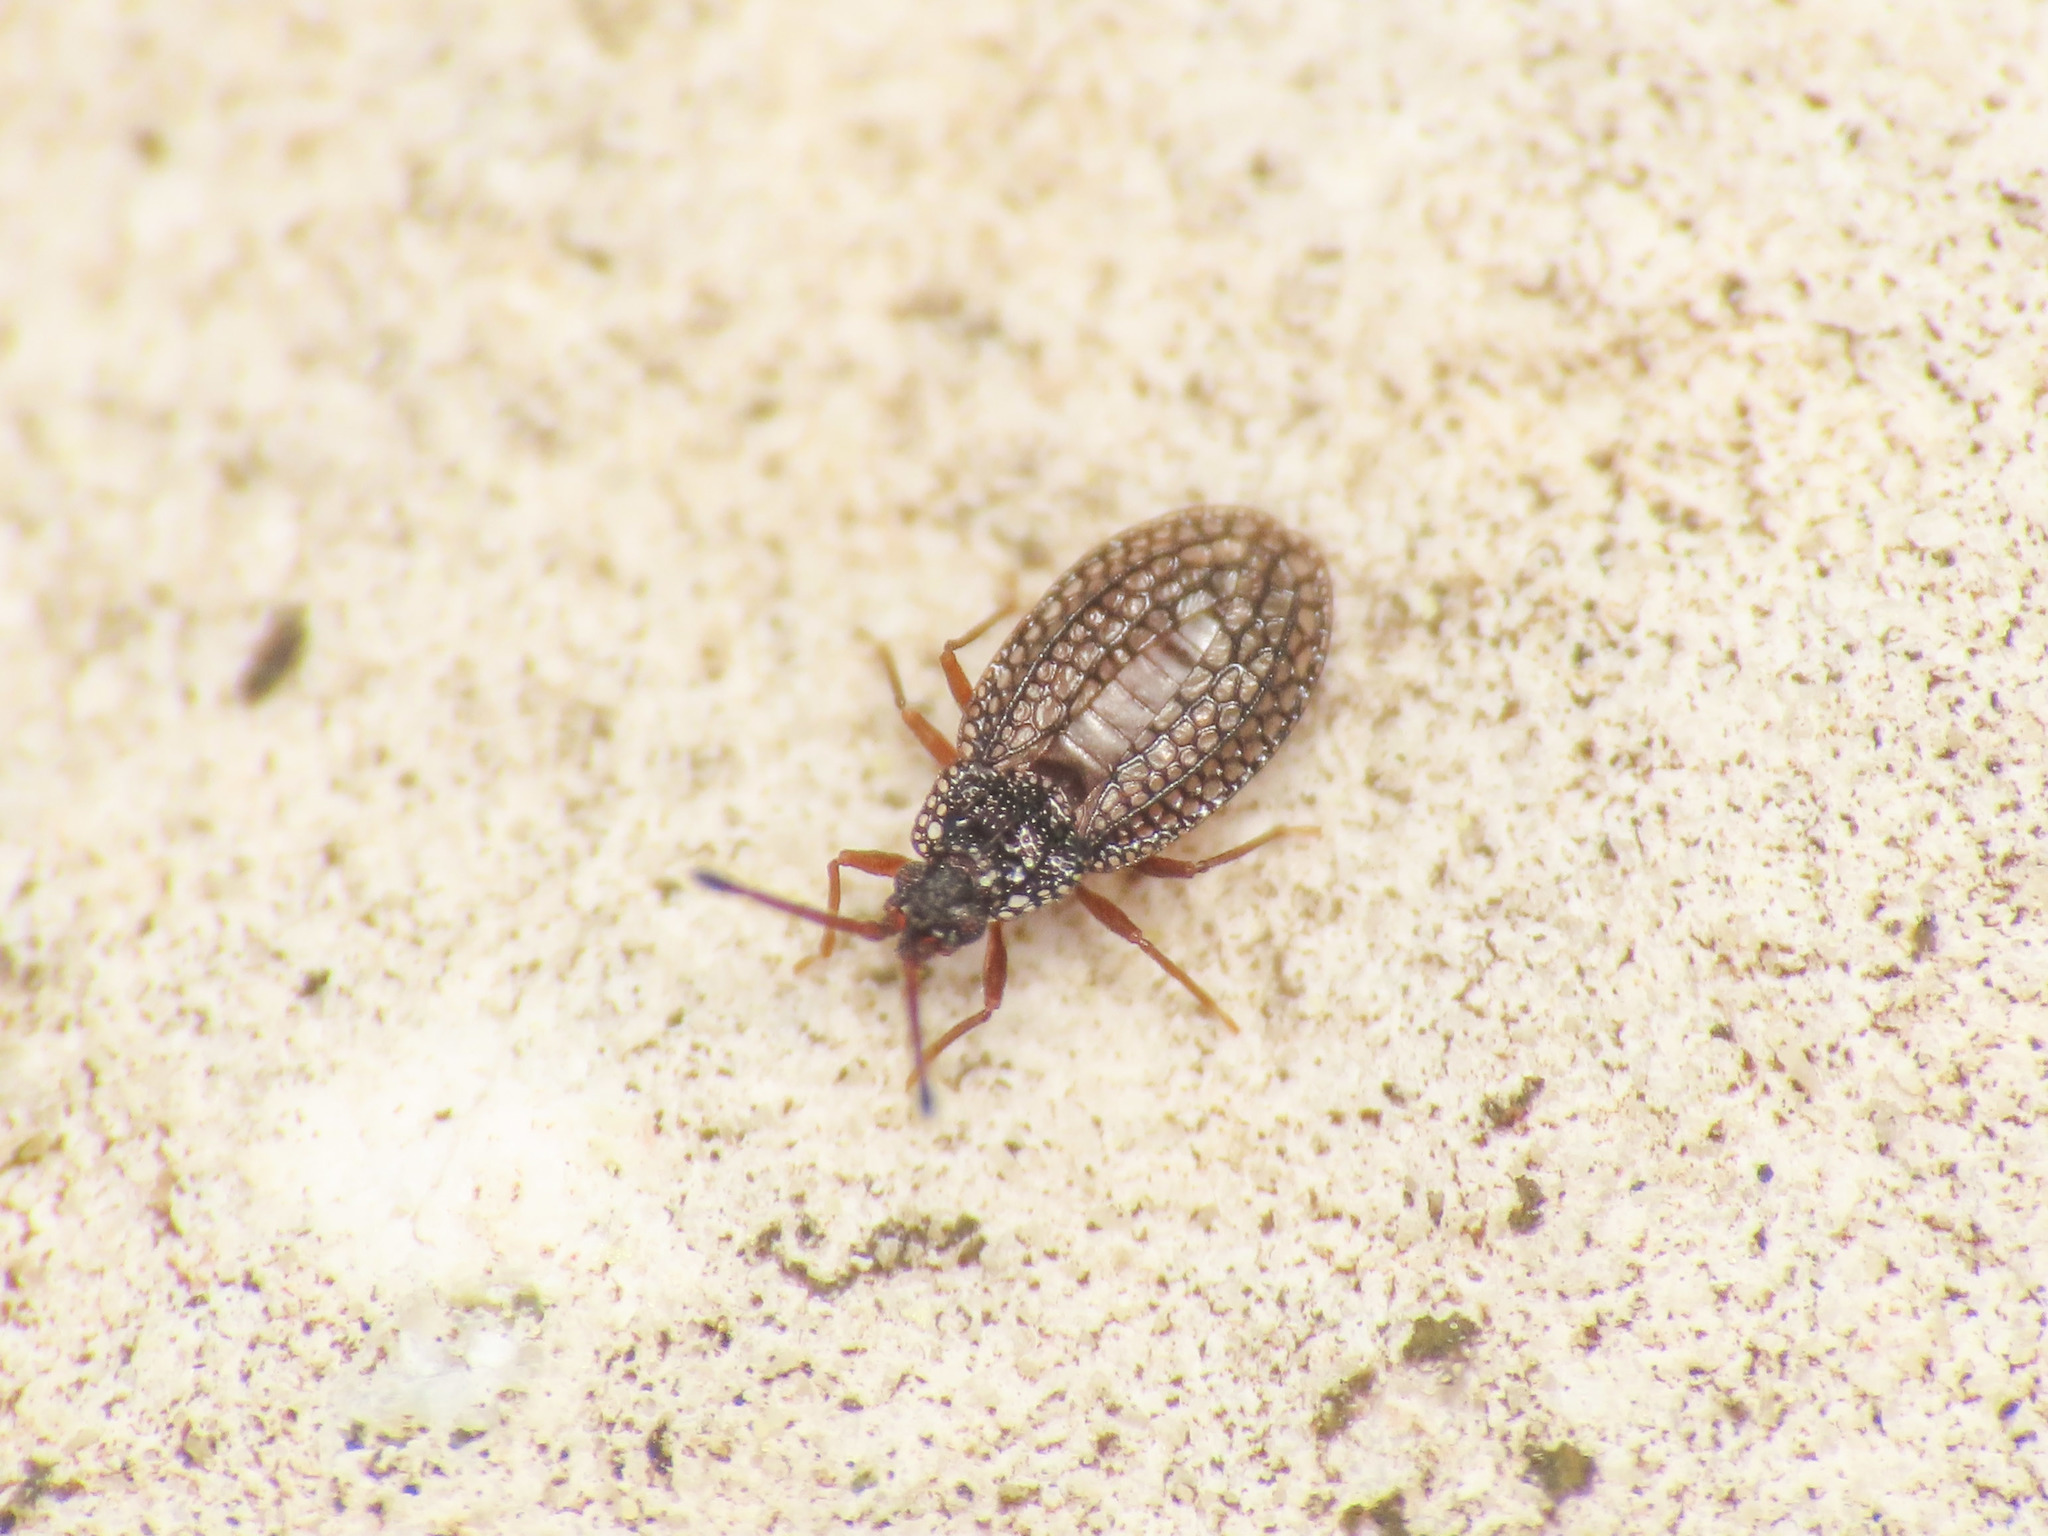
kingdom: Animalia
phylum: Arthropoda
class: Insecta
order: Hemiptera
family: Tingidae
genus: Campylosteira
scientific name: Campylosteira verna
